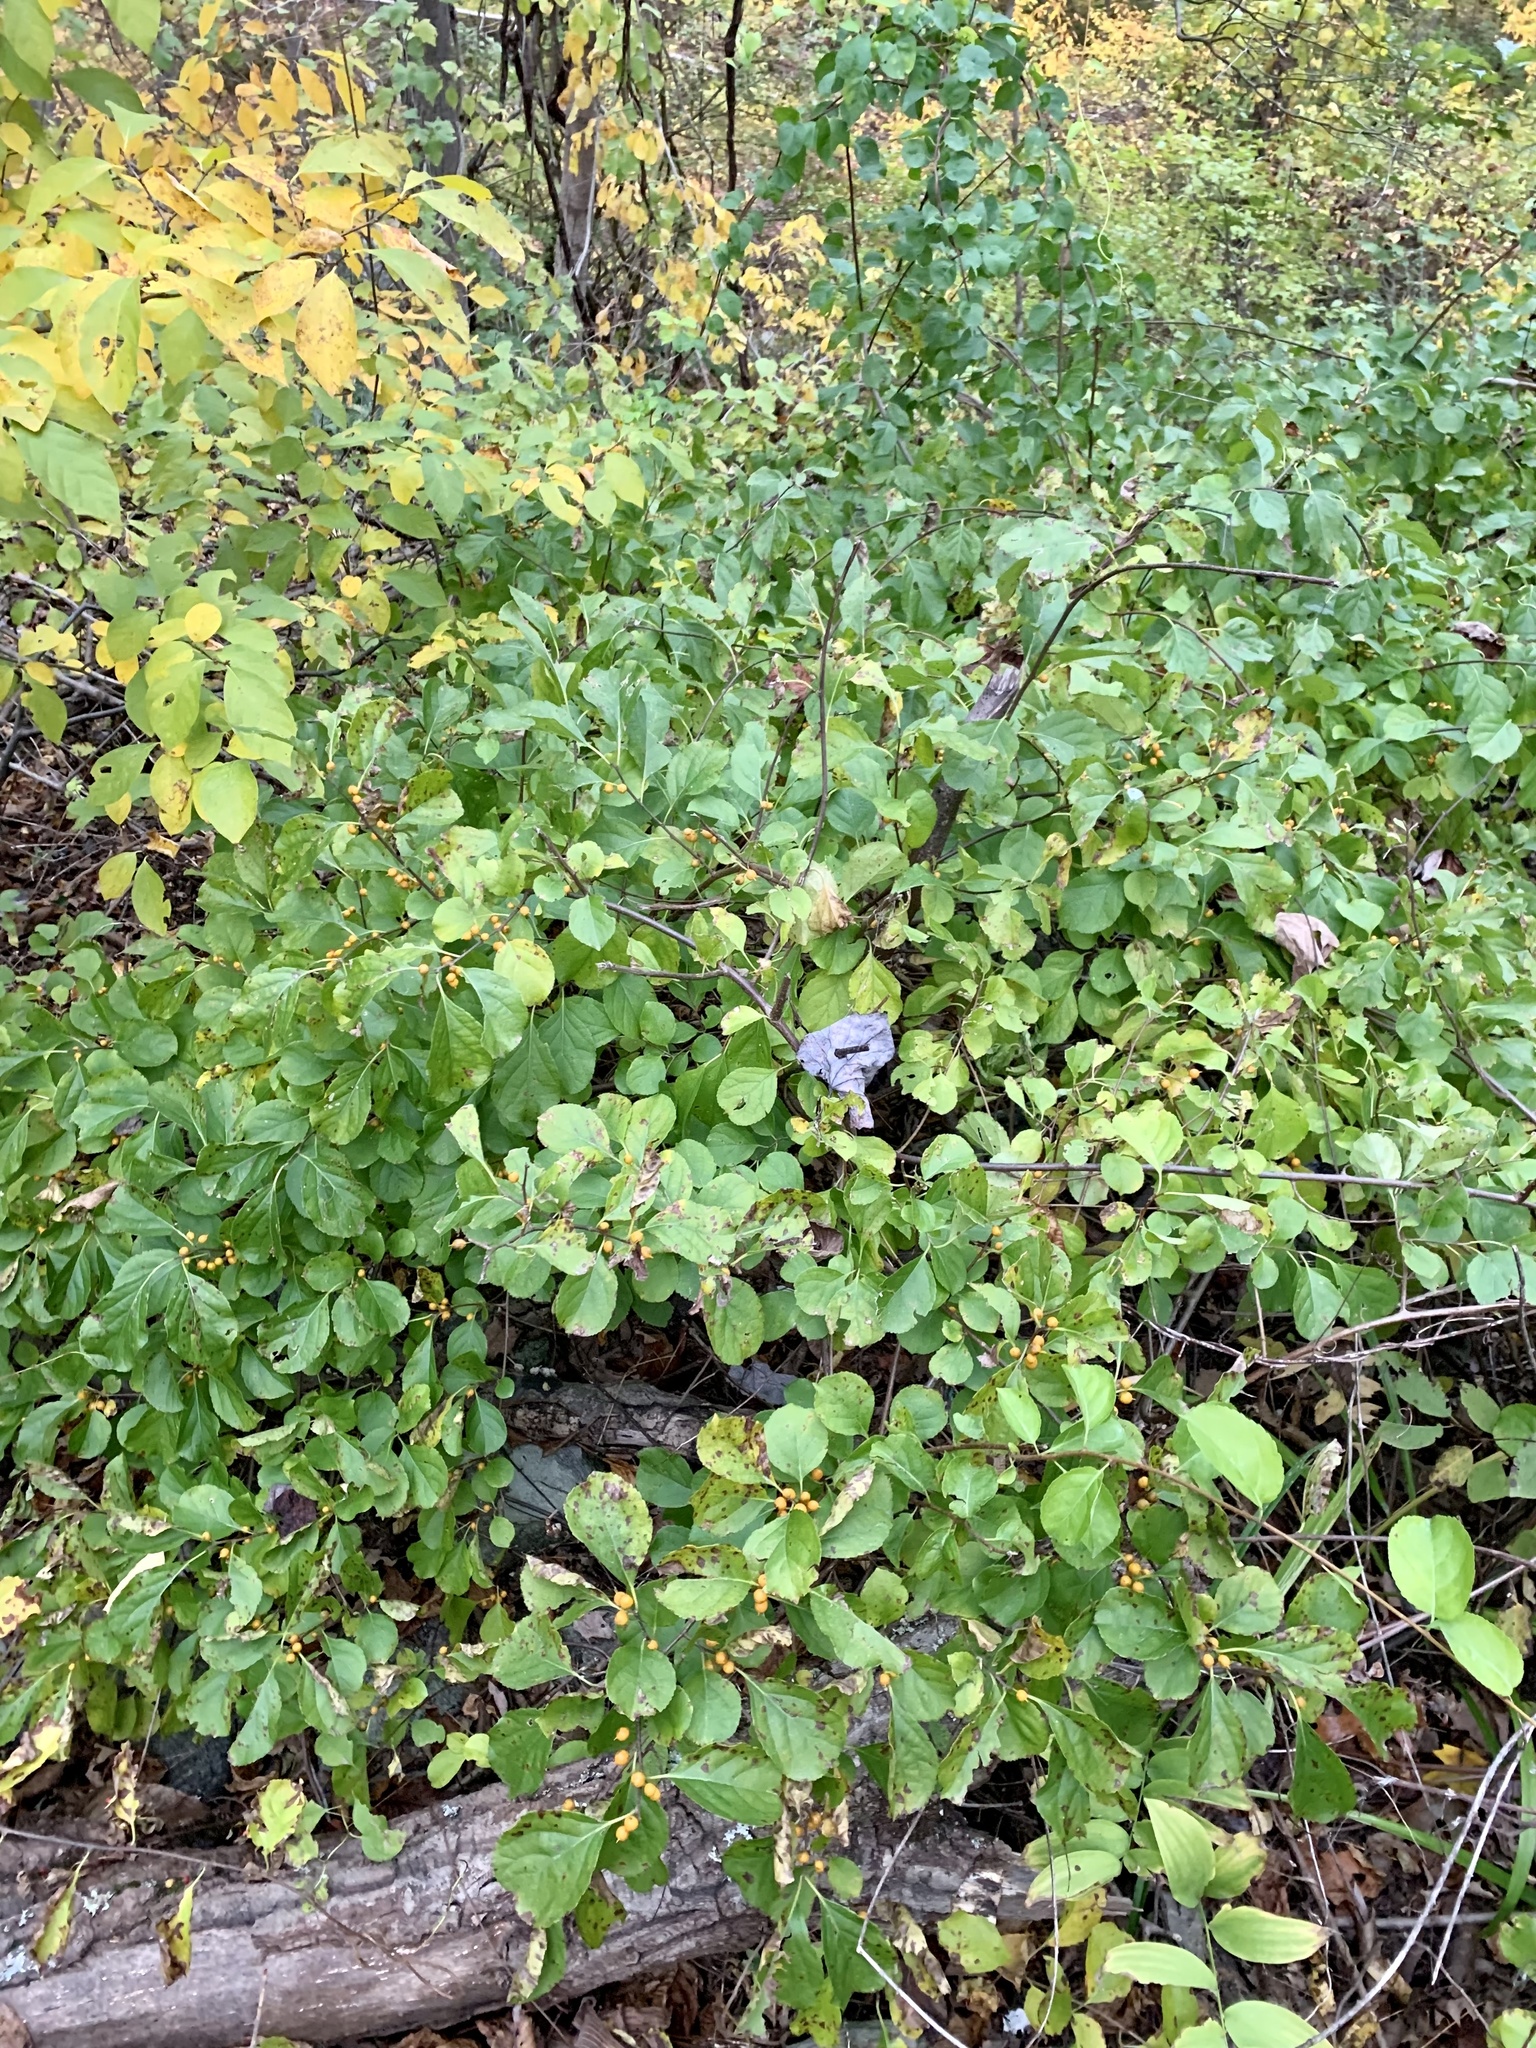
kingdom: Plantae
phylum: Tracheophyta
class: Magnoliopsida
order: Celastrales
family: Celastraceae
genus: Celastrus
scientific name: Celastrus orbiculatus
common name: Oriental bittersweet
